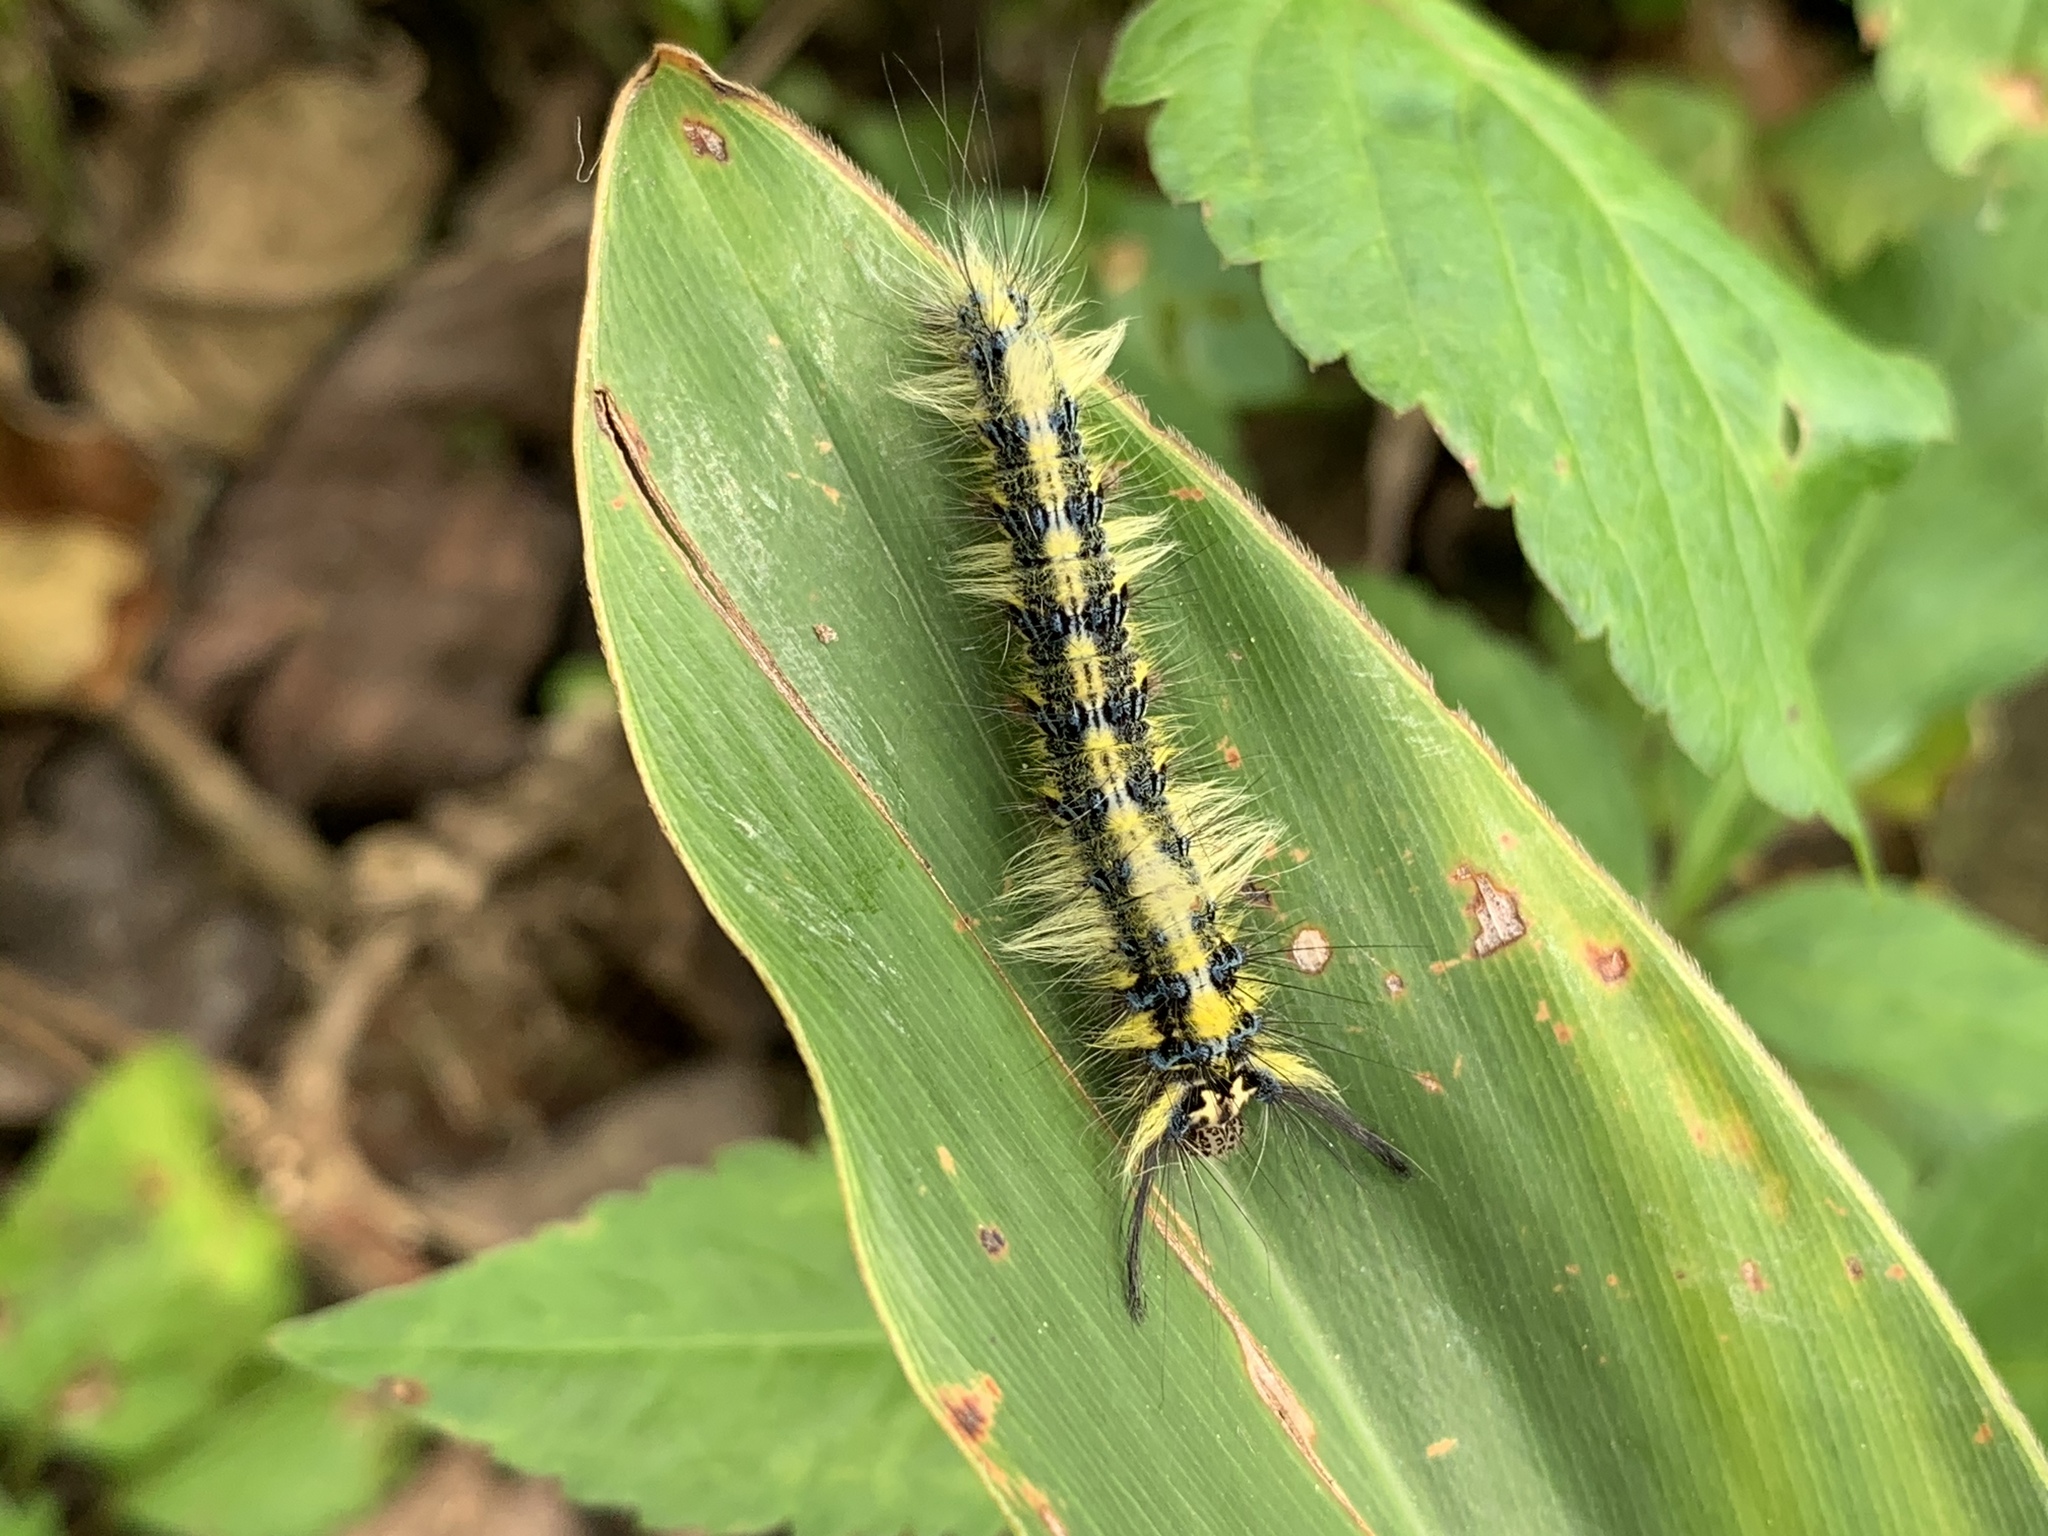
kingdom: Animalia
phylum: Arthropoda
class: Insecta
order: Lepidoptera
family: Lasiocampidae
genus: Trabala
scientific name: Trabala vishnou
